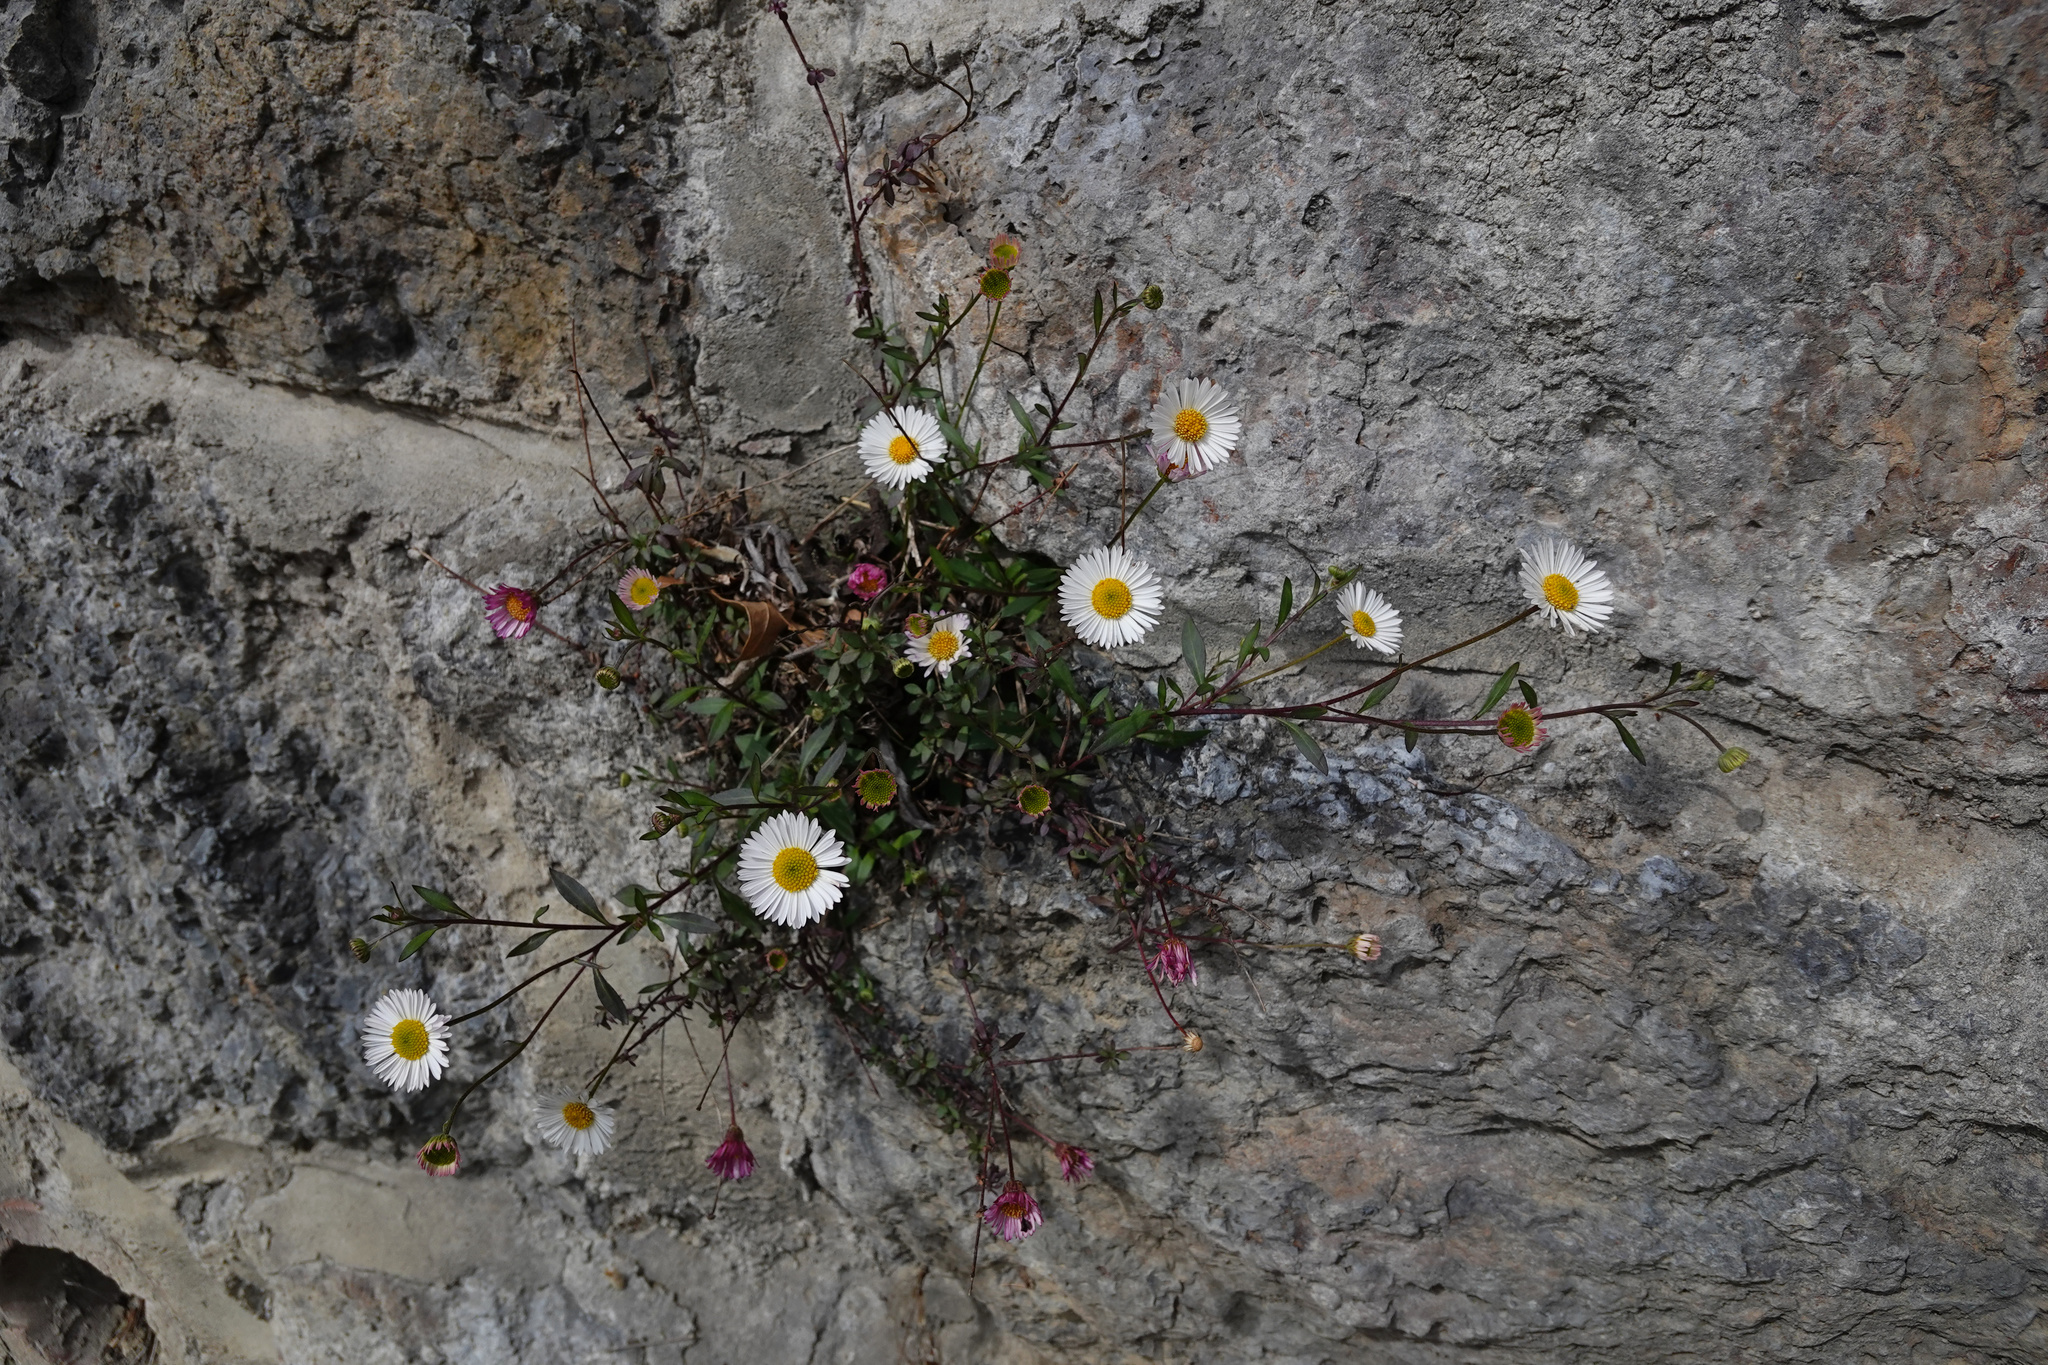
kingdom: Plantae
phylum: Tracheophyta
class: Magnoliopsida
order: Asterales
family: Asteraceae
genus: Erigeron
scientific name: Erigeron karvinskianus
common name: Mexican fleabane
